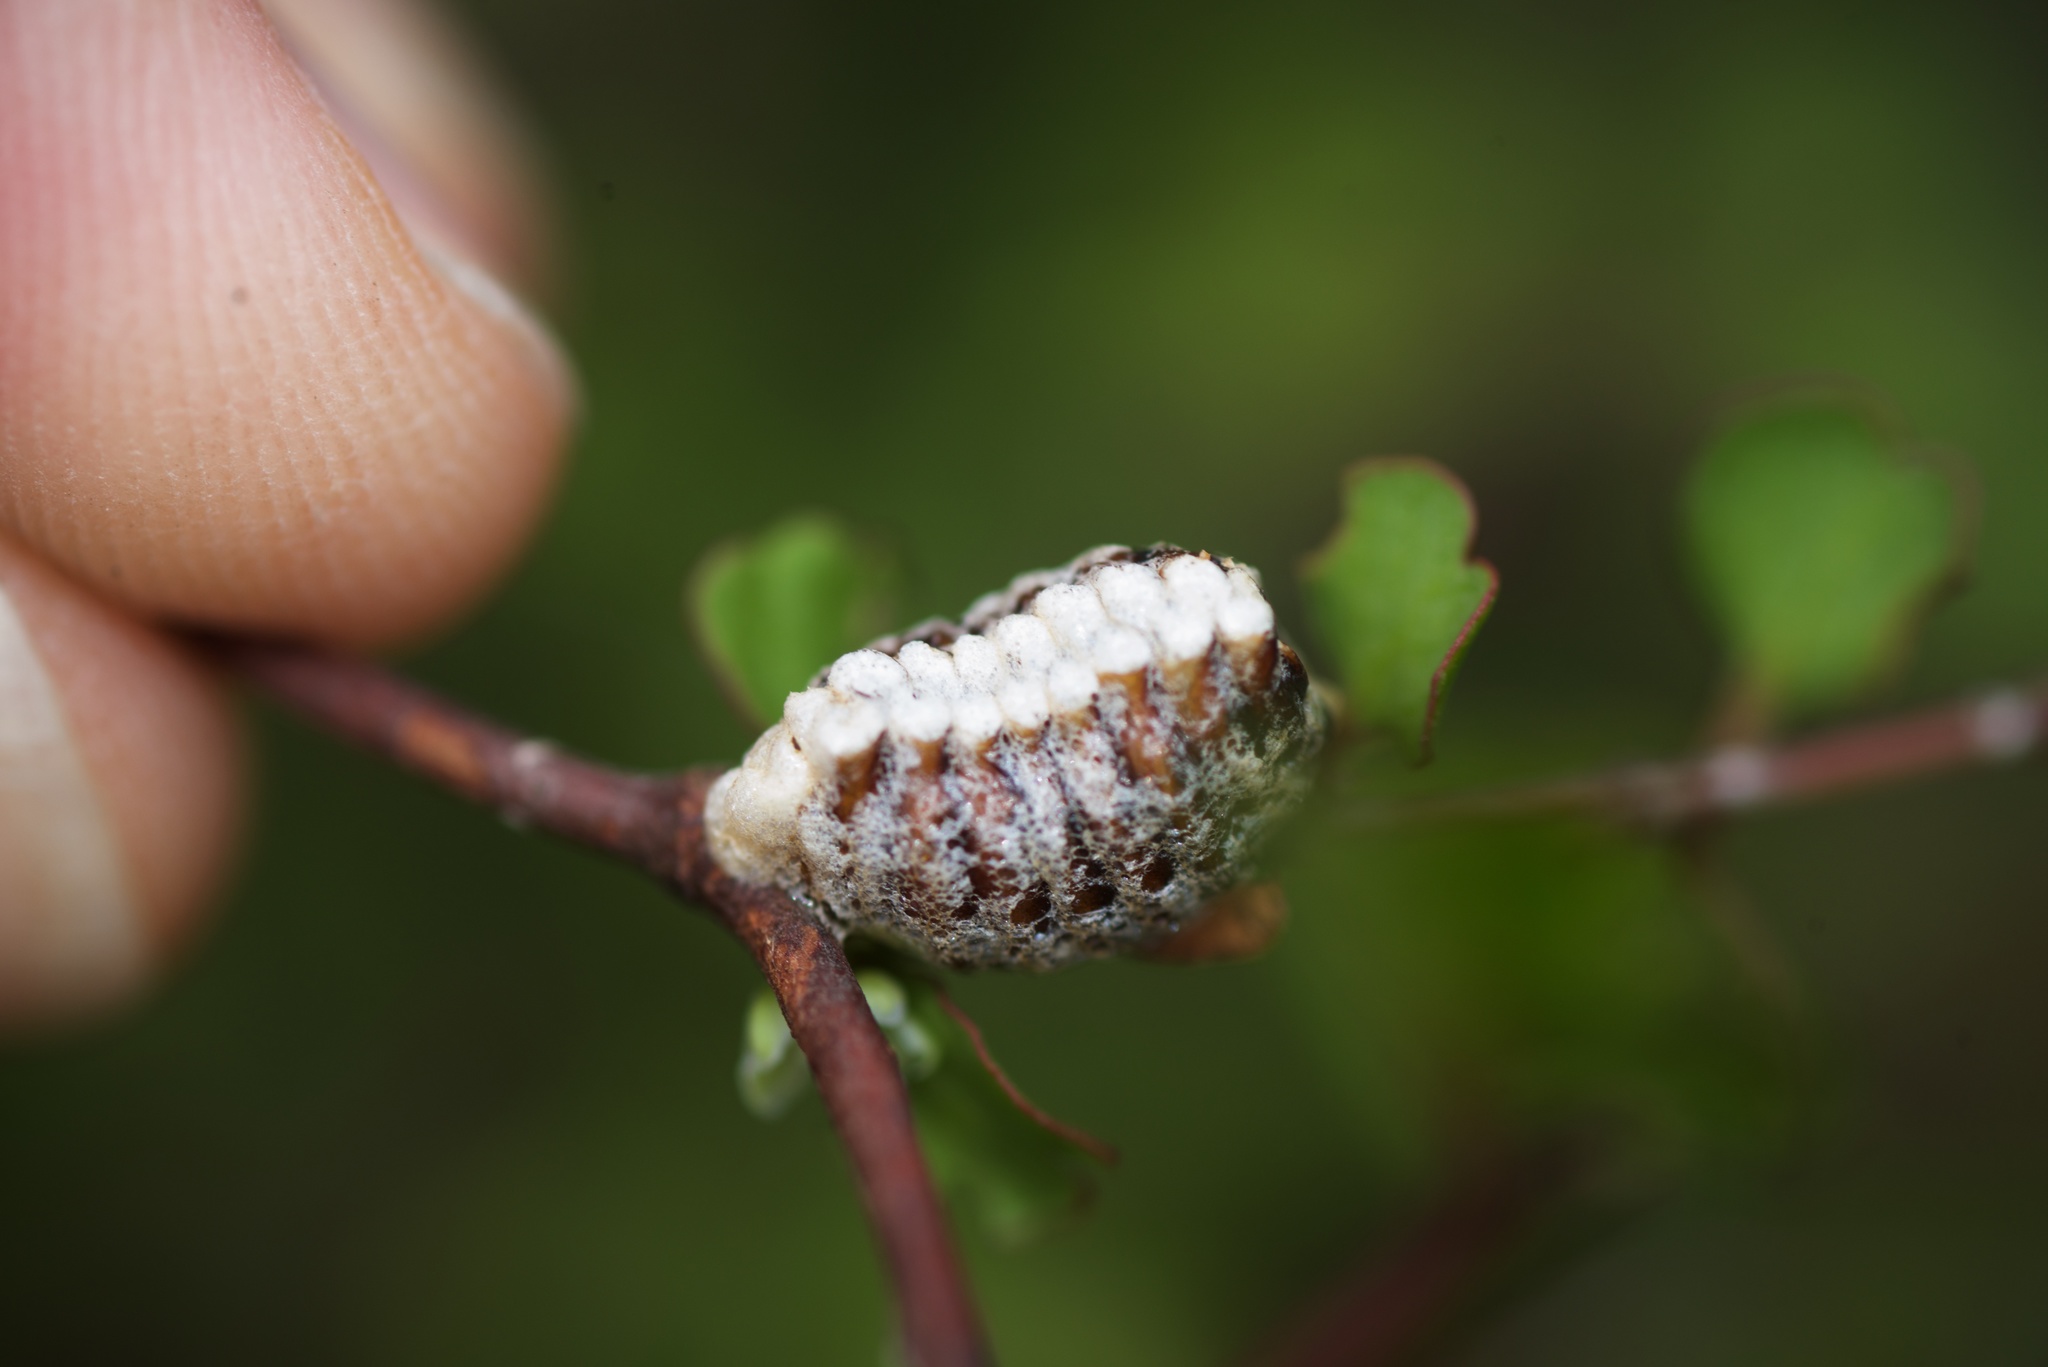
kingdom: Animalia
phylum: Arthropoda
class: Insecta
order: Mantodea
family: Mantidae
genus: Orthodera
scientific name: Orthodera novaezealandiae
